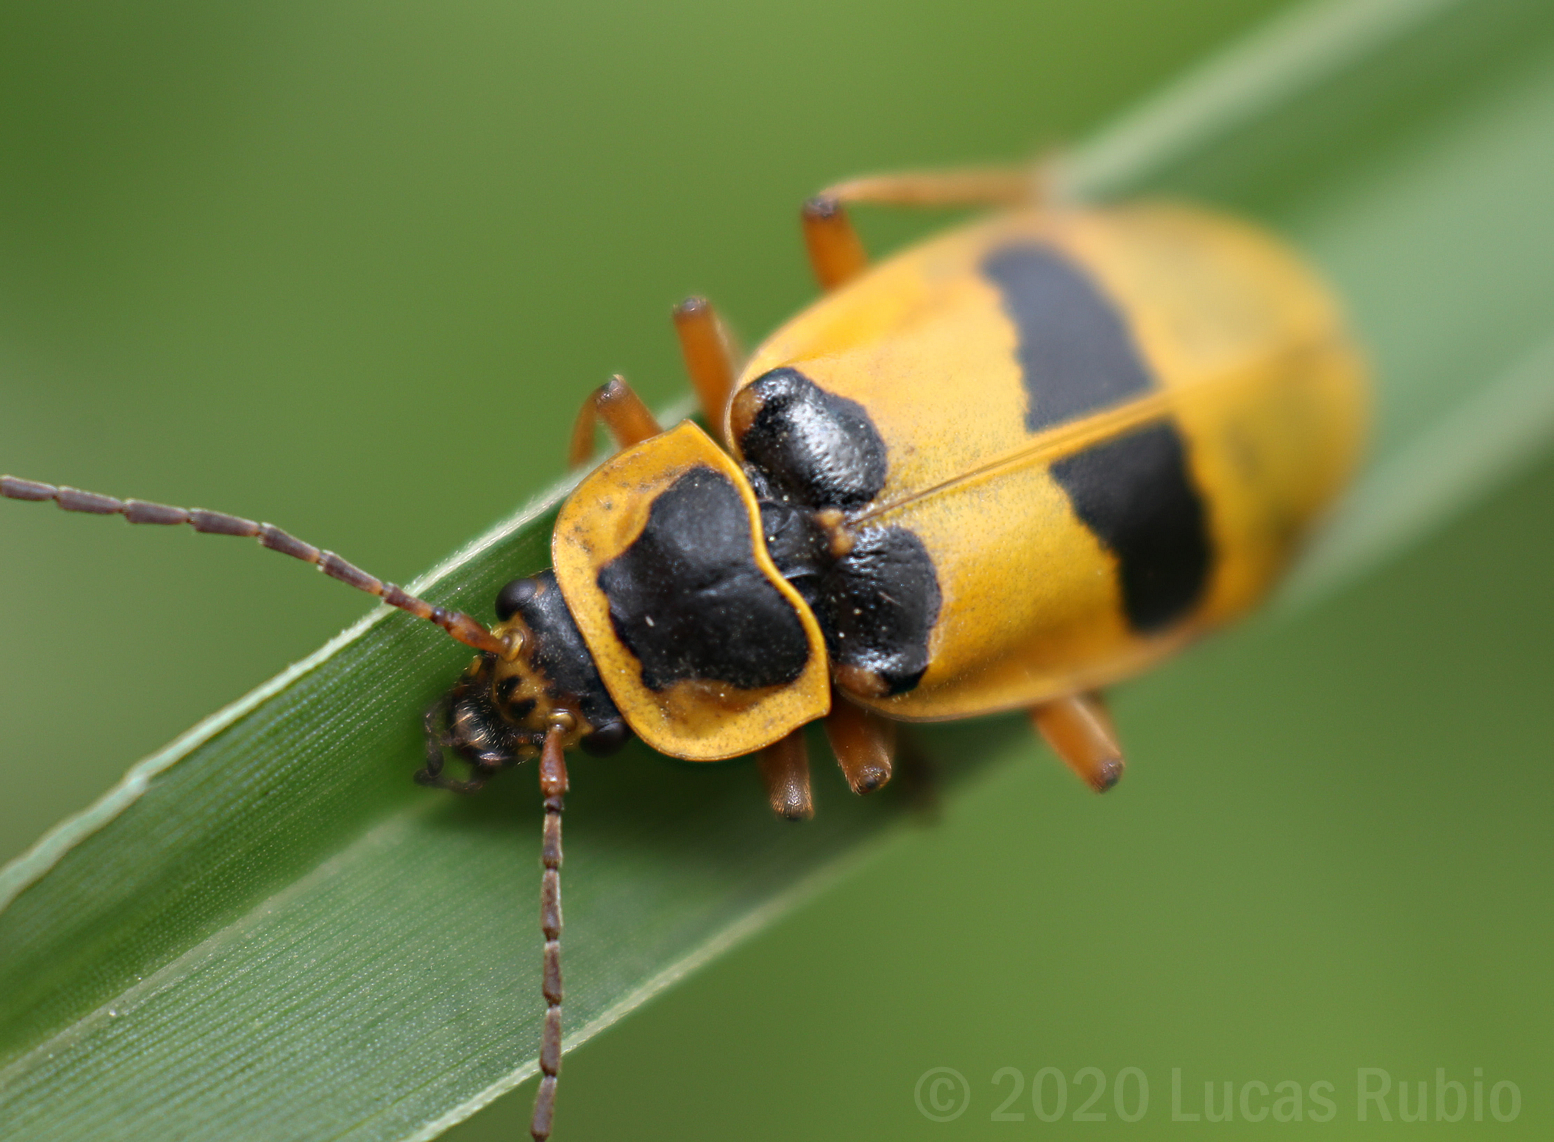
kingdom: Animalia
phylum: Arthropoda
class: Insecta
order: Coleoptera
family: Cantharidae
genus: Chauliognathus
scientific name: Chauliognathus
